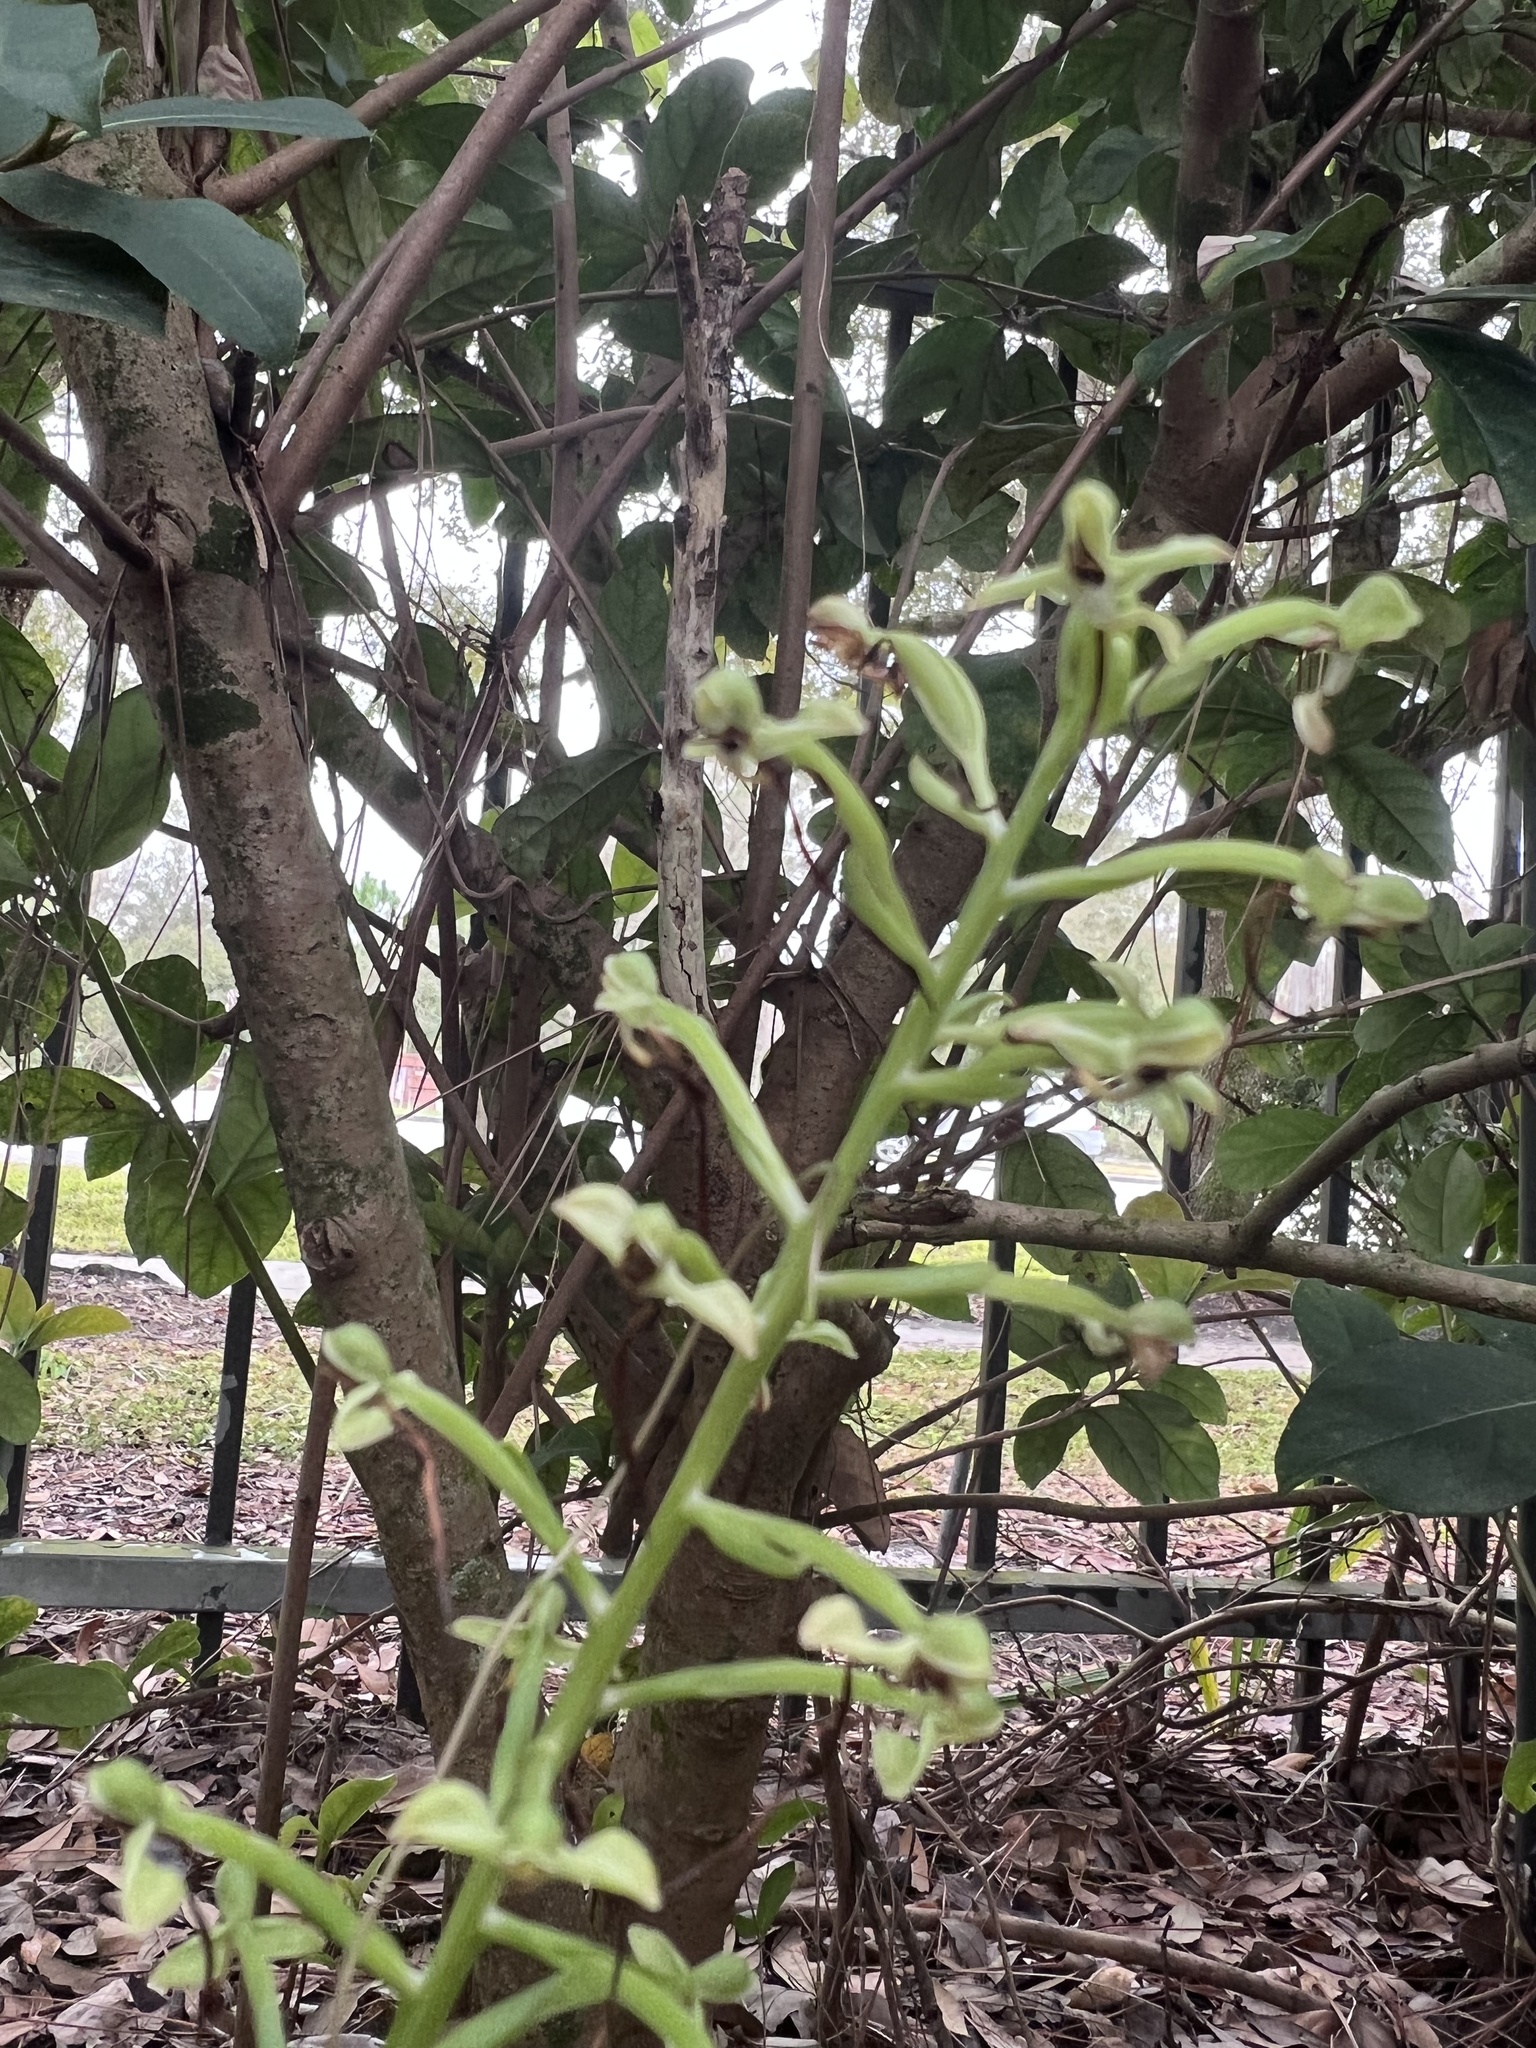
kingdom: Plantae
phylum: Tracheophyta
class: Liliopsida
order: Asparagales
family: Orchidaceae
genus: Habenaria
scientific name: Habenaria floribunda
